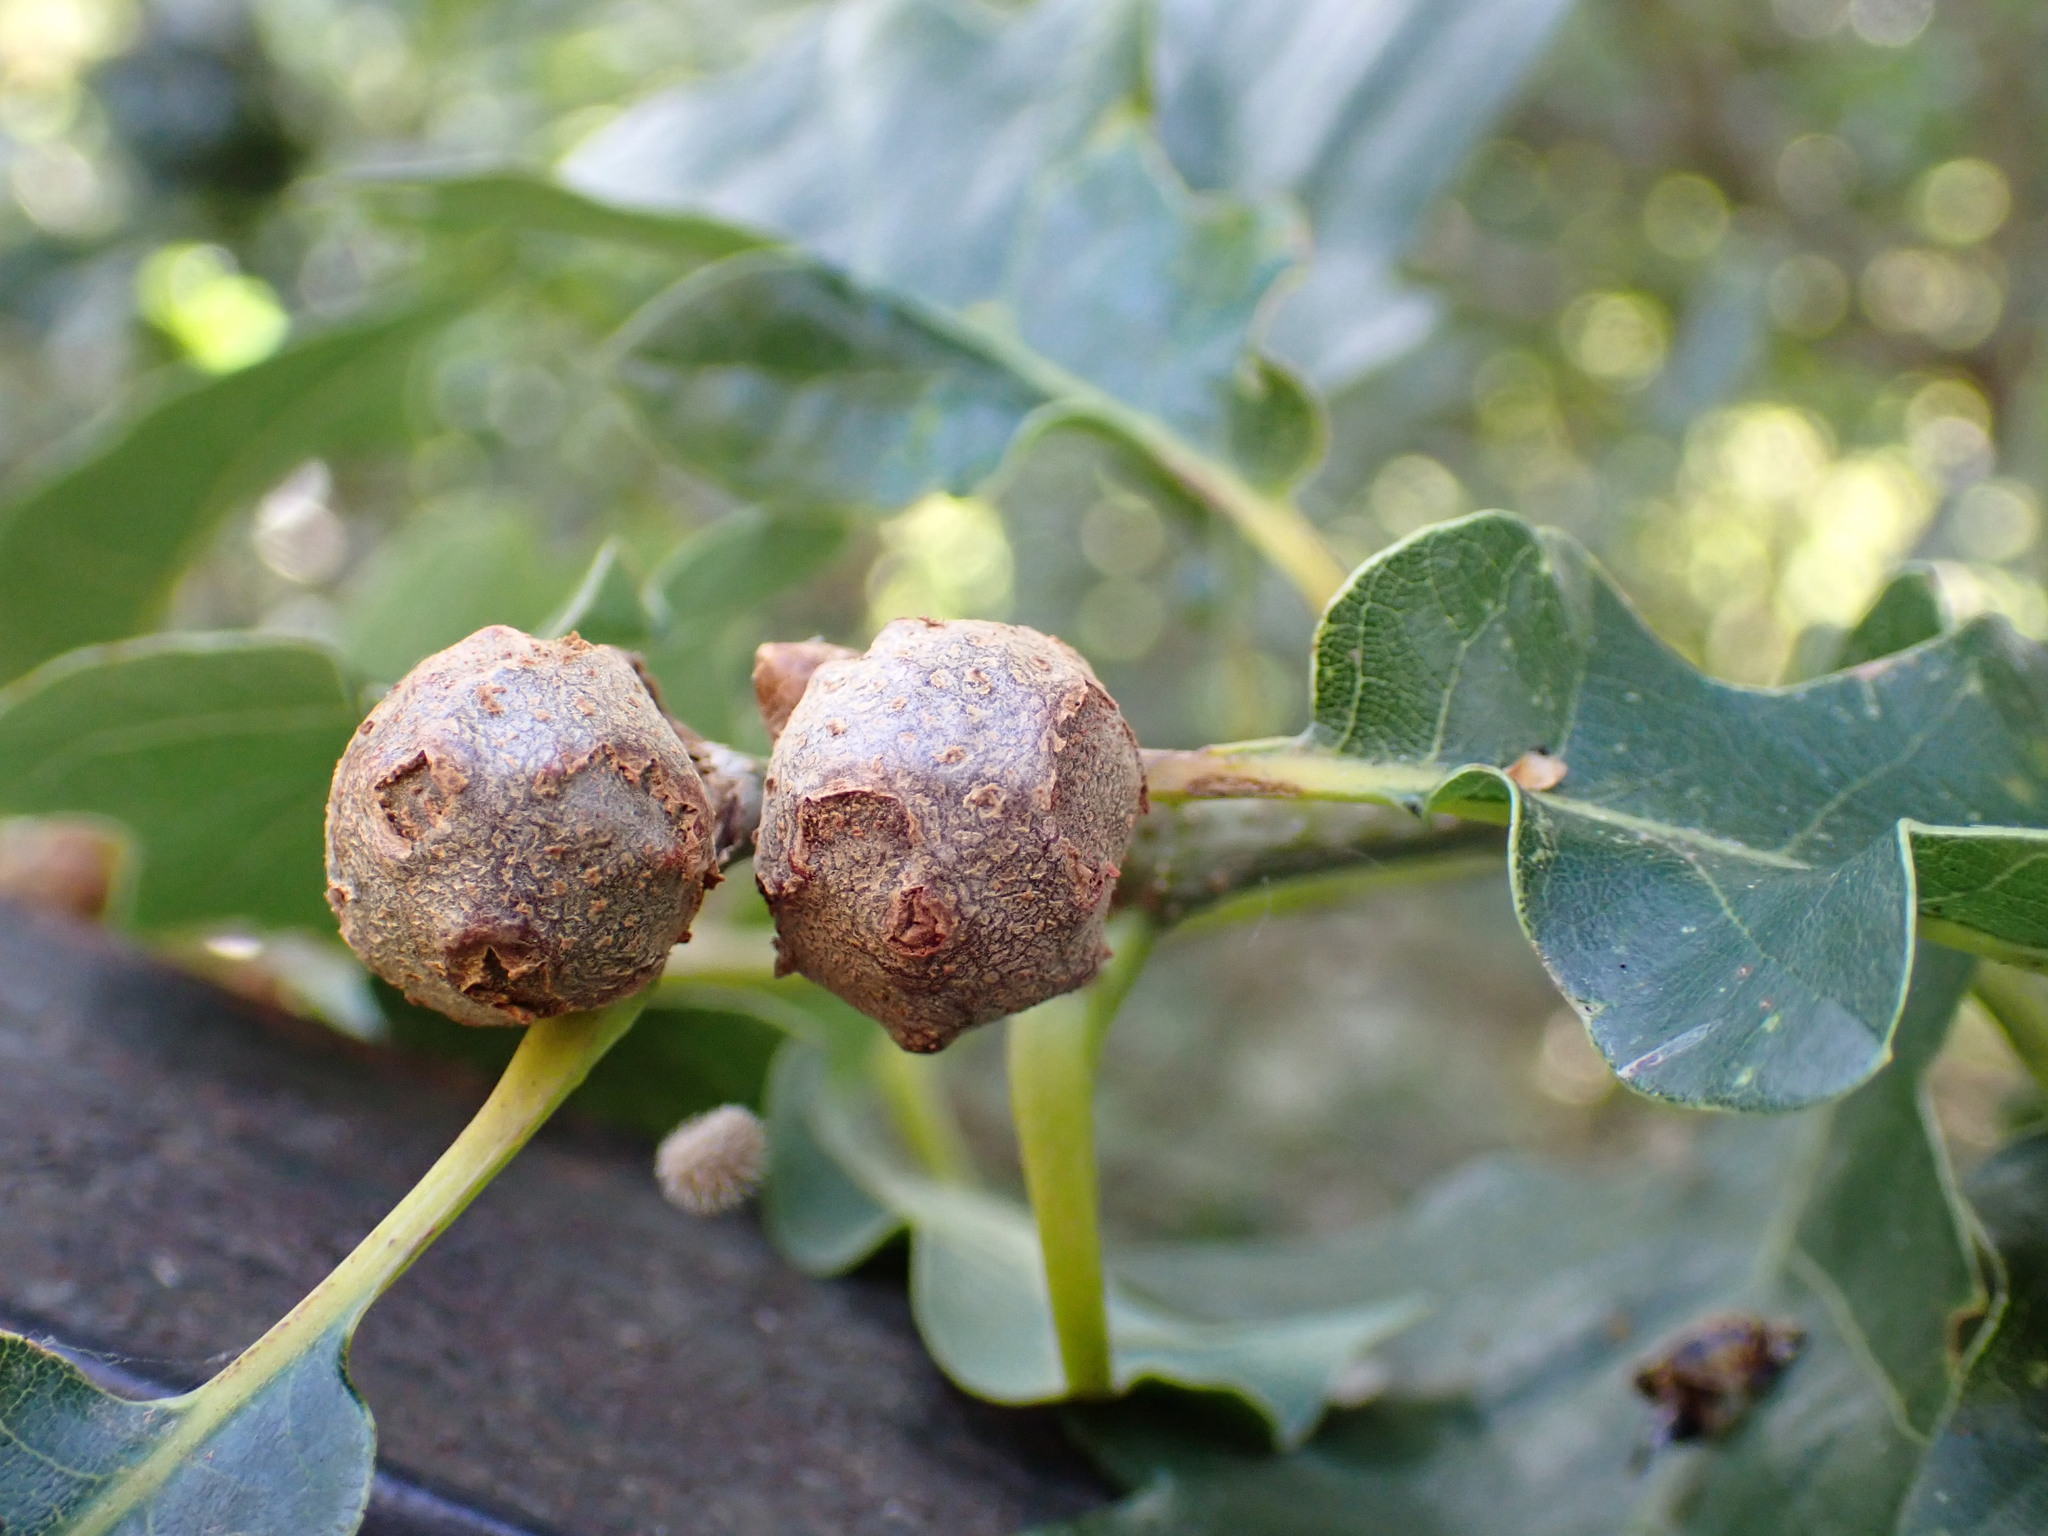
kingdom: Animalia
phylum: Arthropoda
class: Insecta
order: Hymenoptera
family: Cynipidae
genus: Andricus
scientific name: Andricus lignicolus
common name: Cola-nut gall
